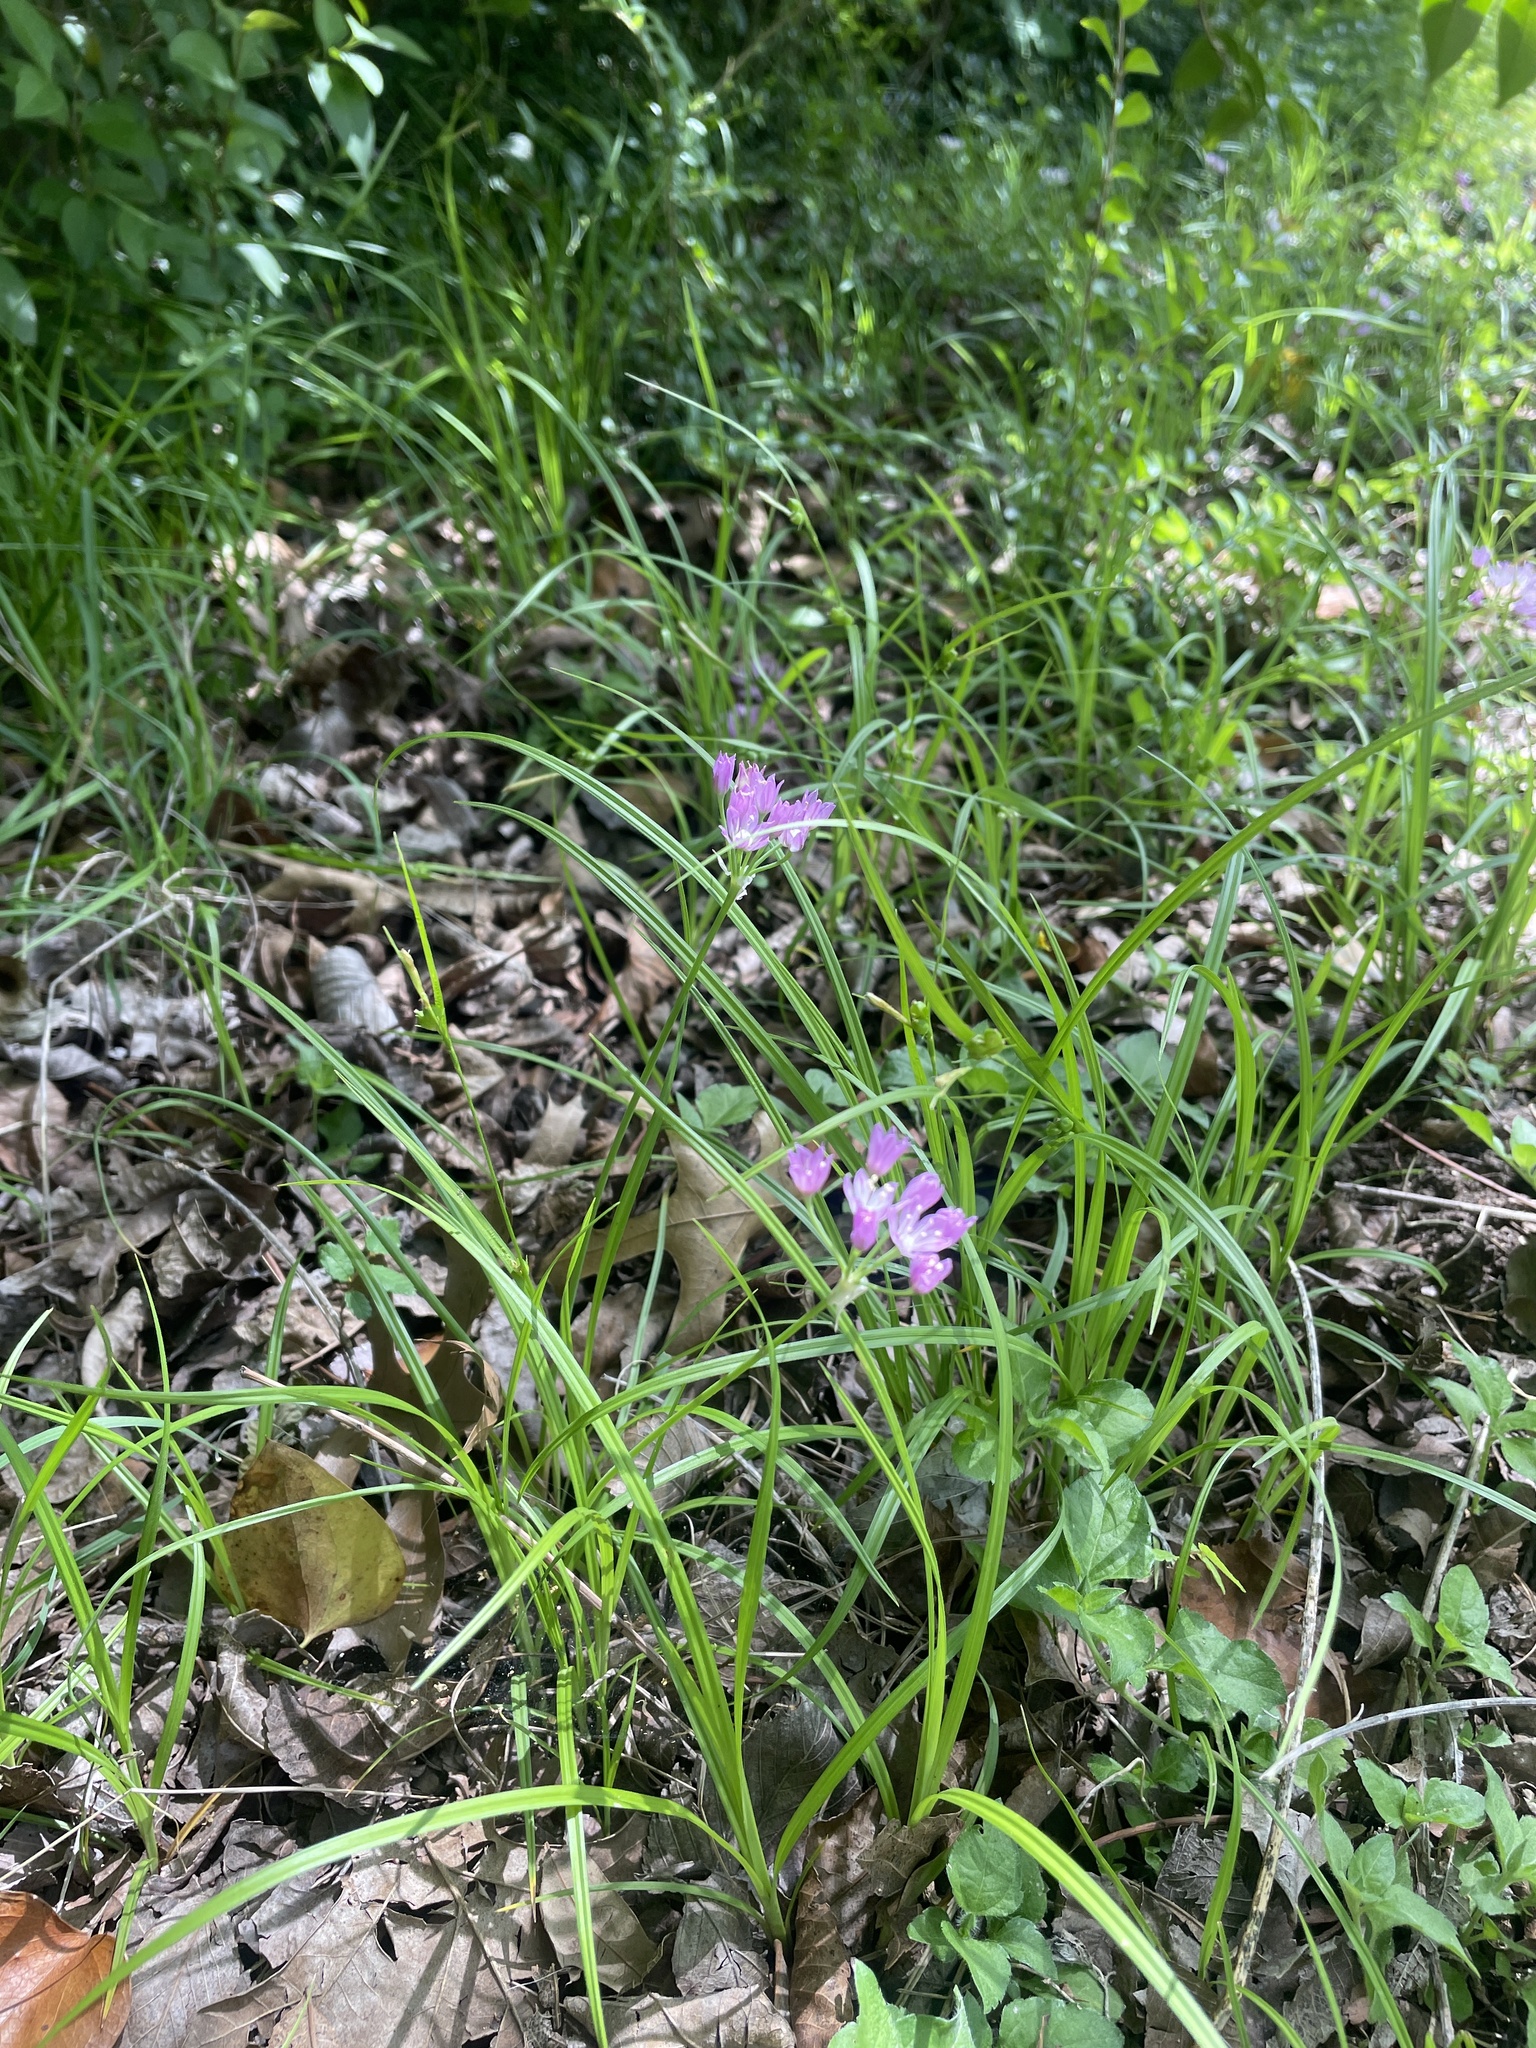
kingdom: Plantae
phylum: Tracheophyta
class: Liliopsida
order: Asparagales
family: Amaryllidaceae
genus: Allium
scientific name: Allium drummondii
